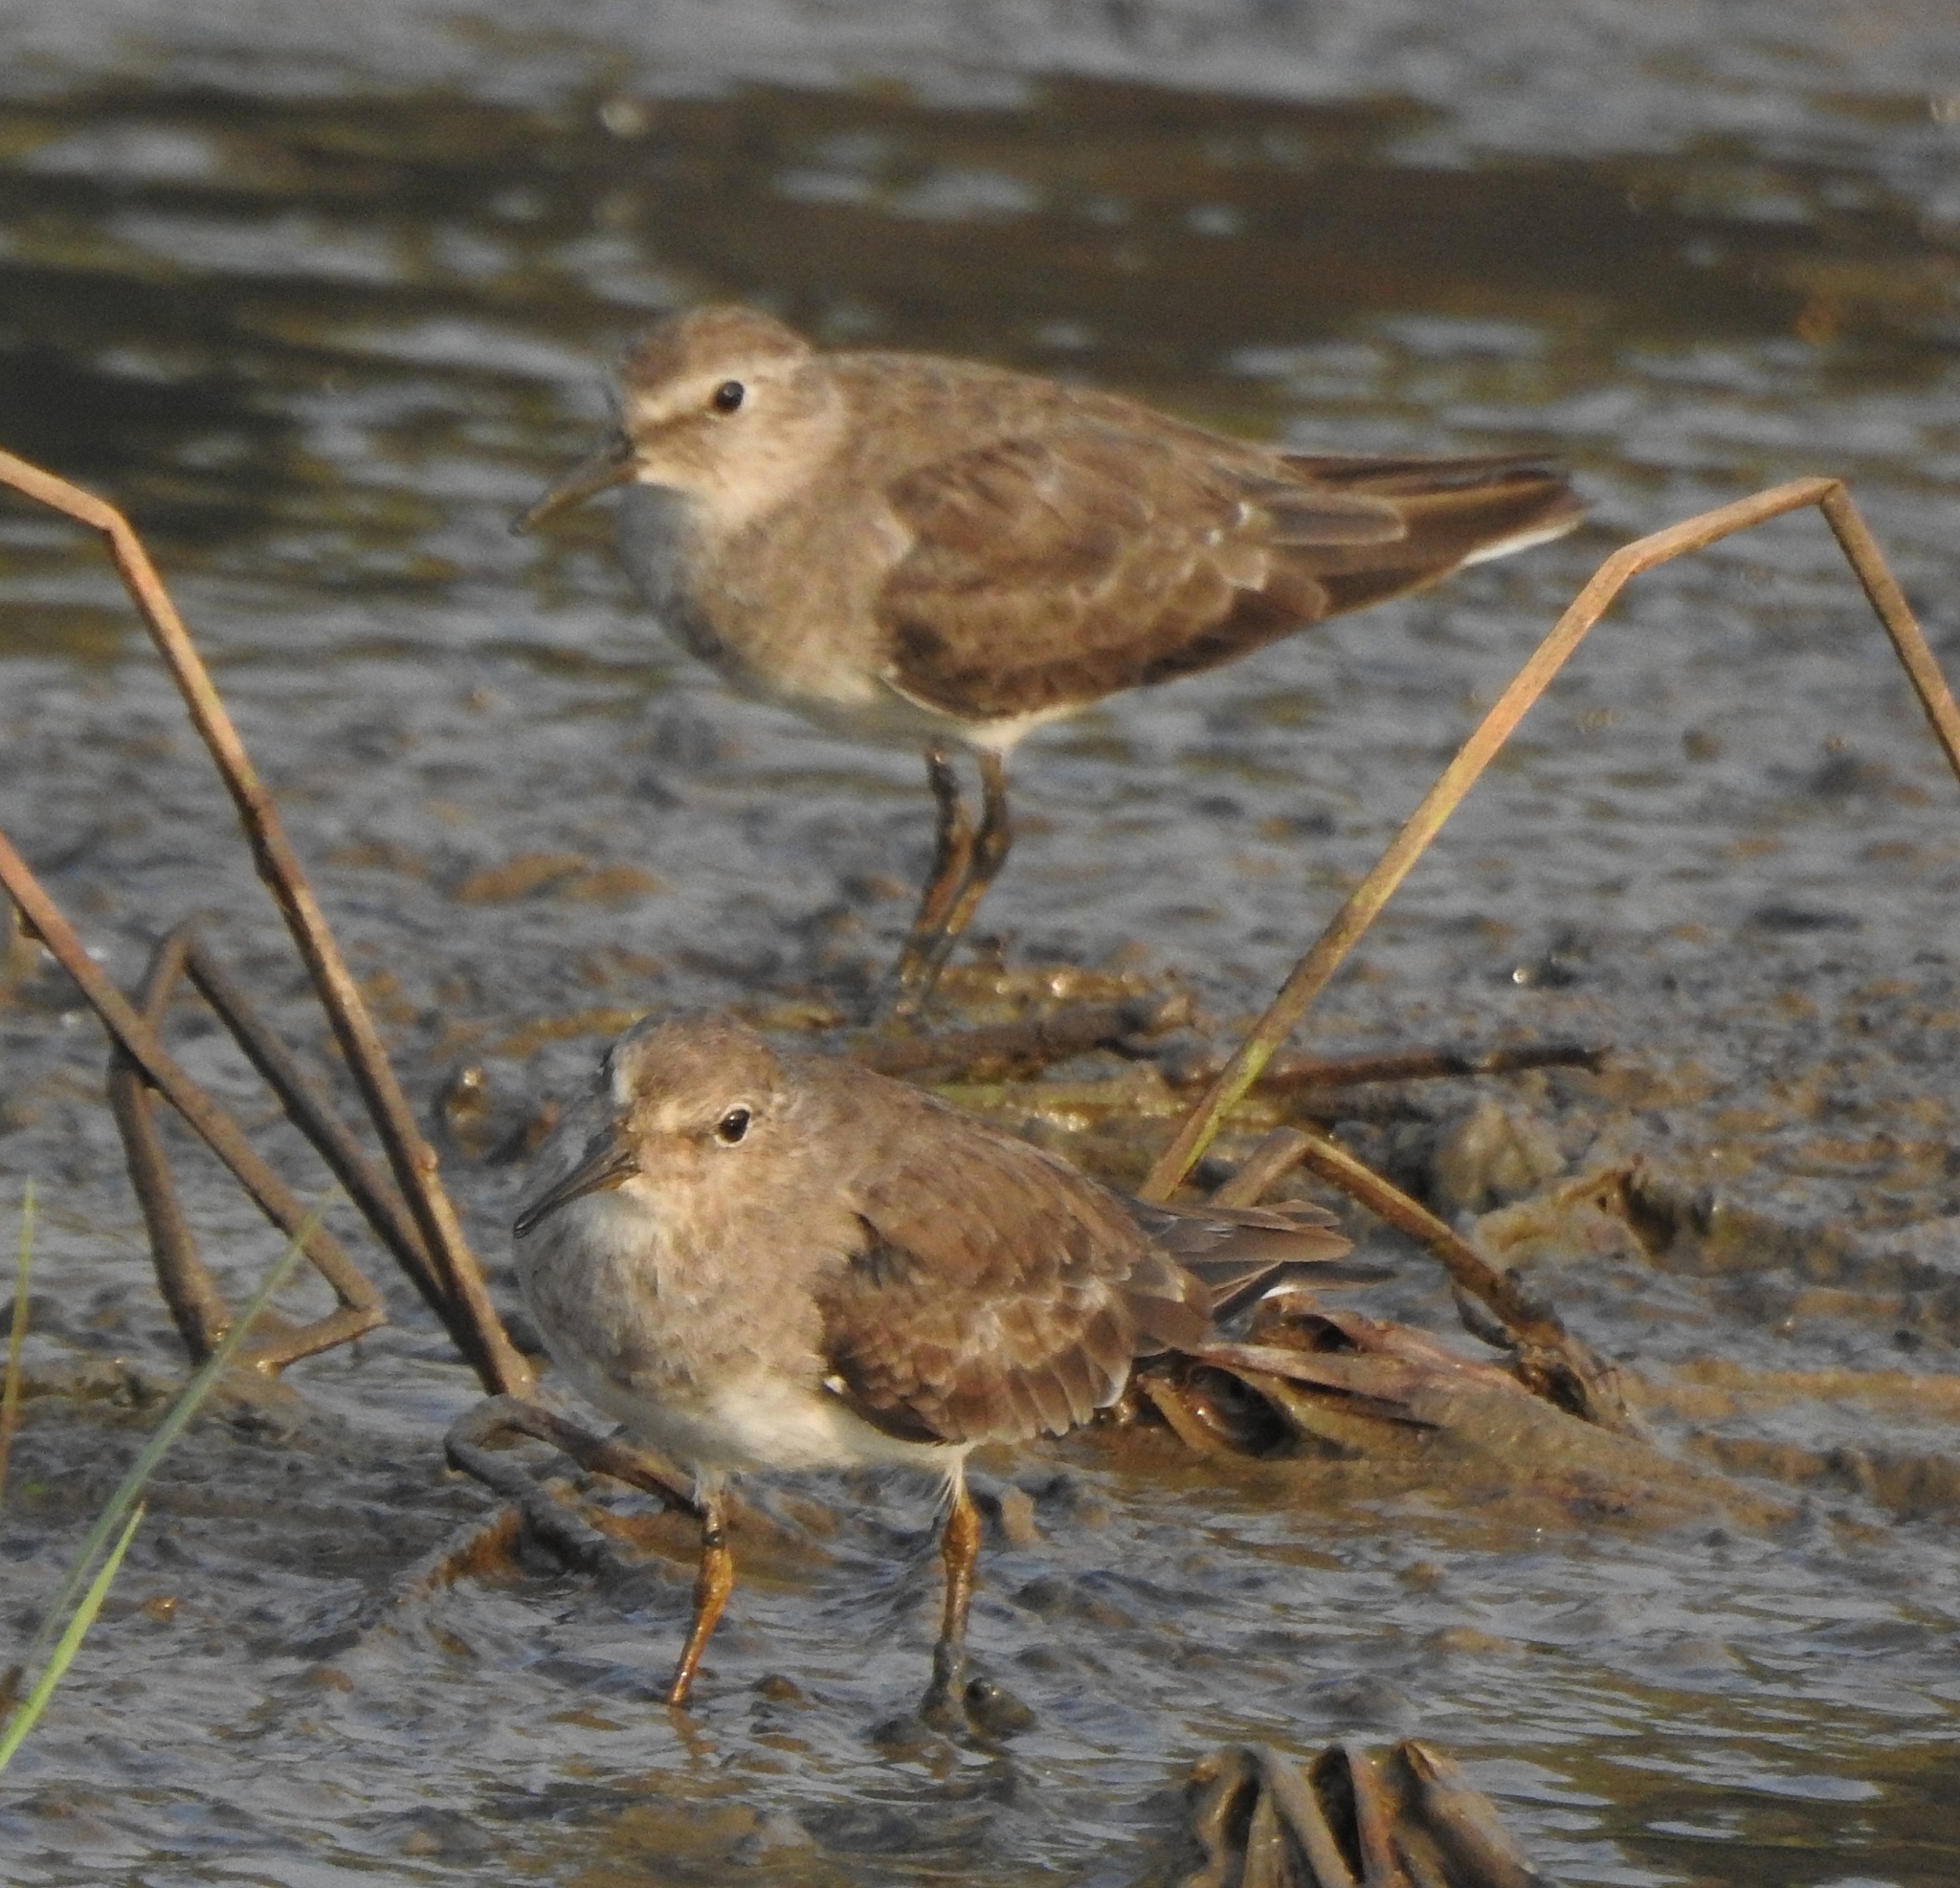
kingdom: Animalia
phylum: Chordata
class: Aves
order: Charadriiformes
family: Scolopacidae
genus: Calidris
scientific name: Calidris temminckii
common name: Temminck's stint
